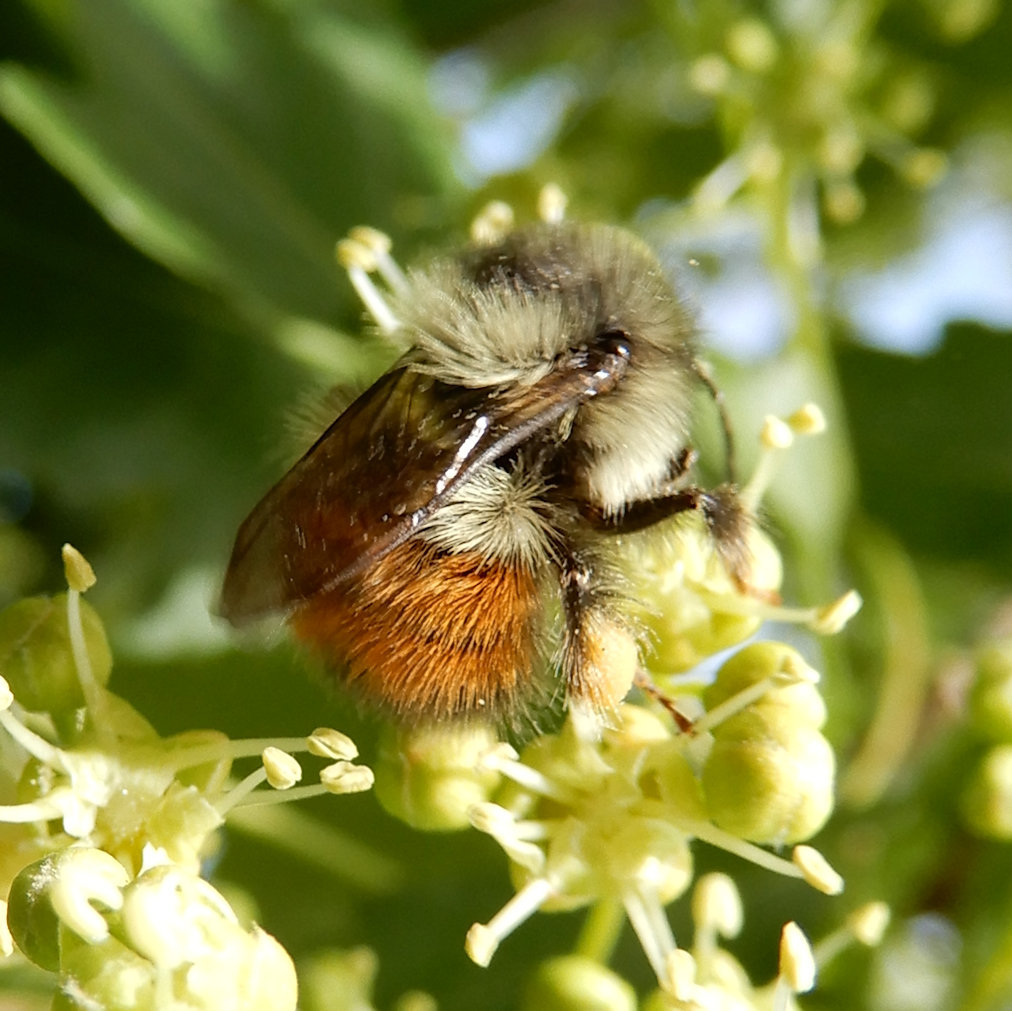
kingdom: Animalia
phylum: Arthropoda
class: Insecta
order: Hymenoptera
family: Apidae
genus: Bombus
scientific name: Bombus melanopygus
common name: Black tail bumble bee
